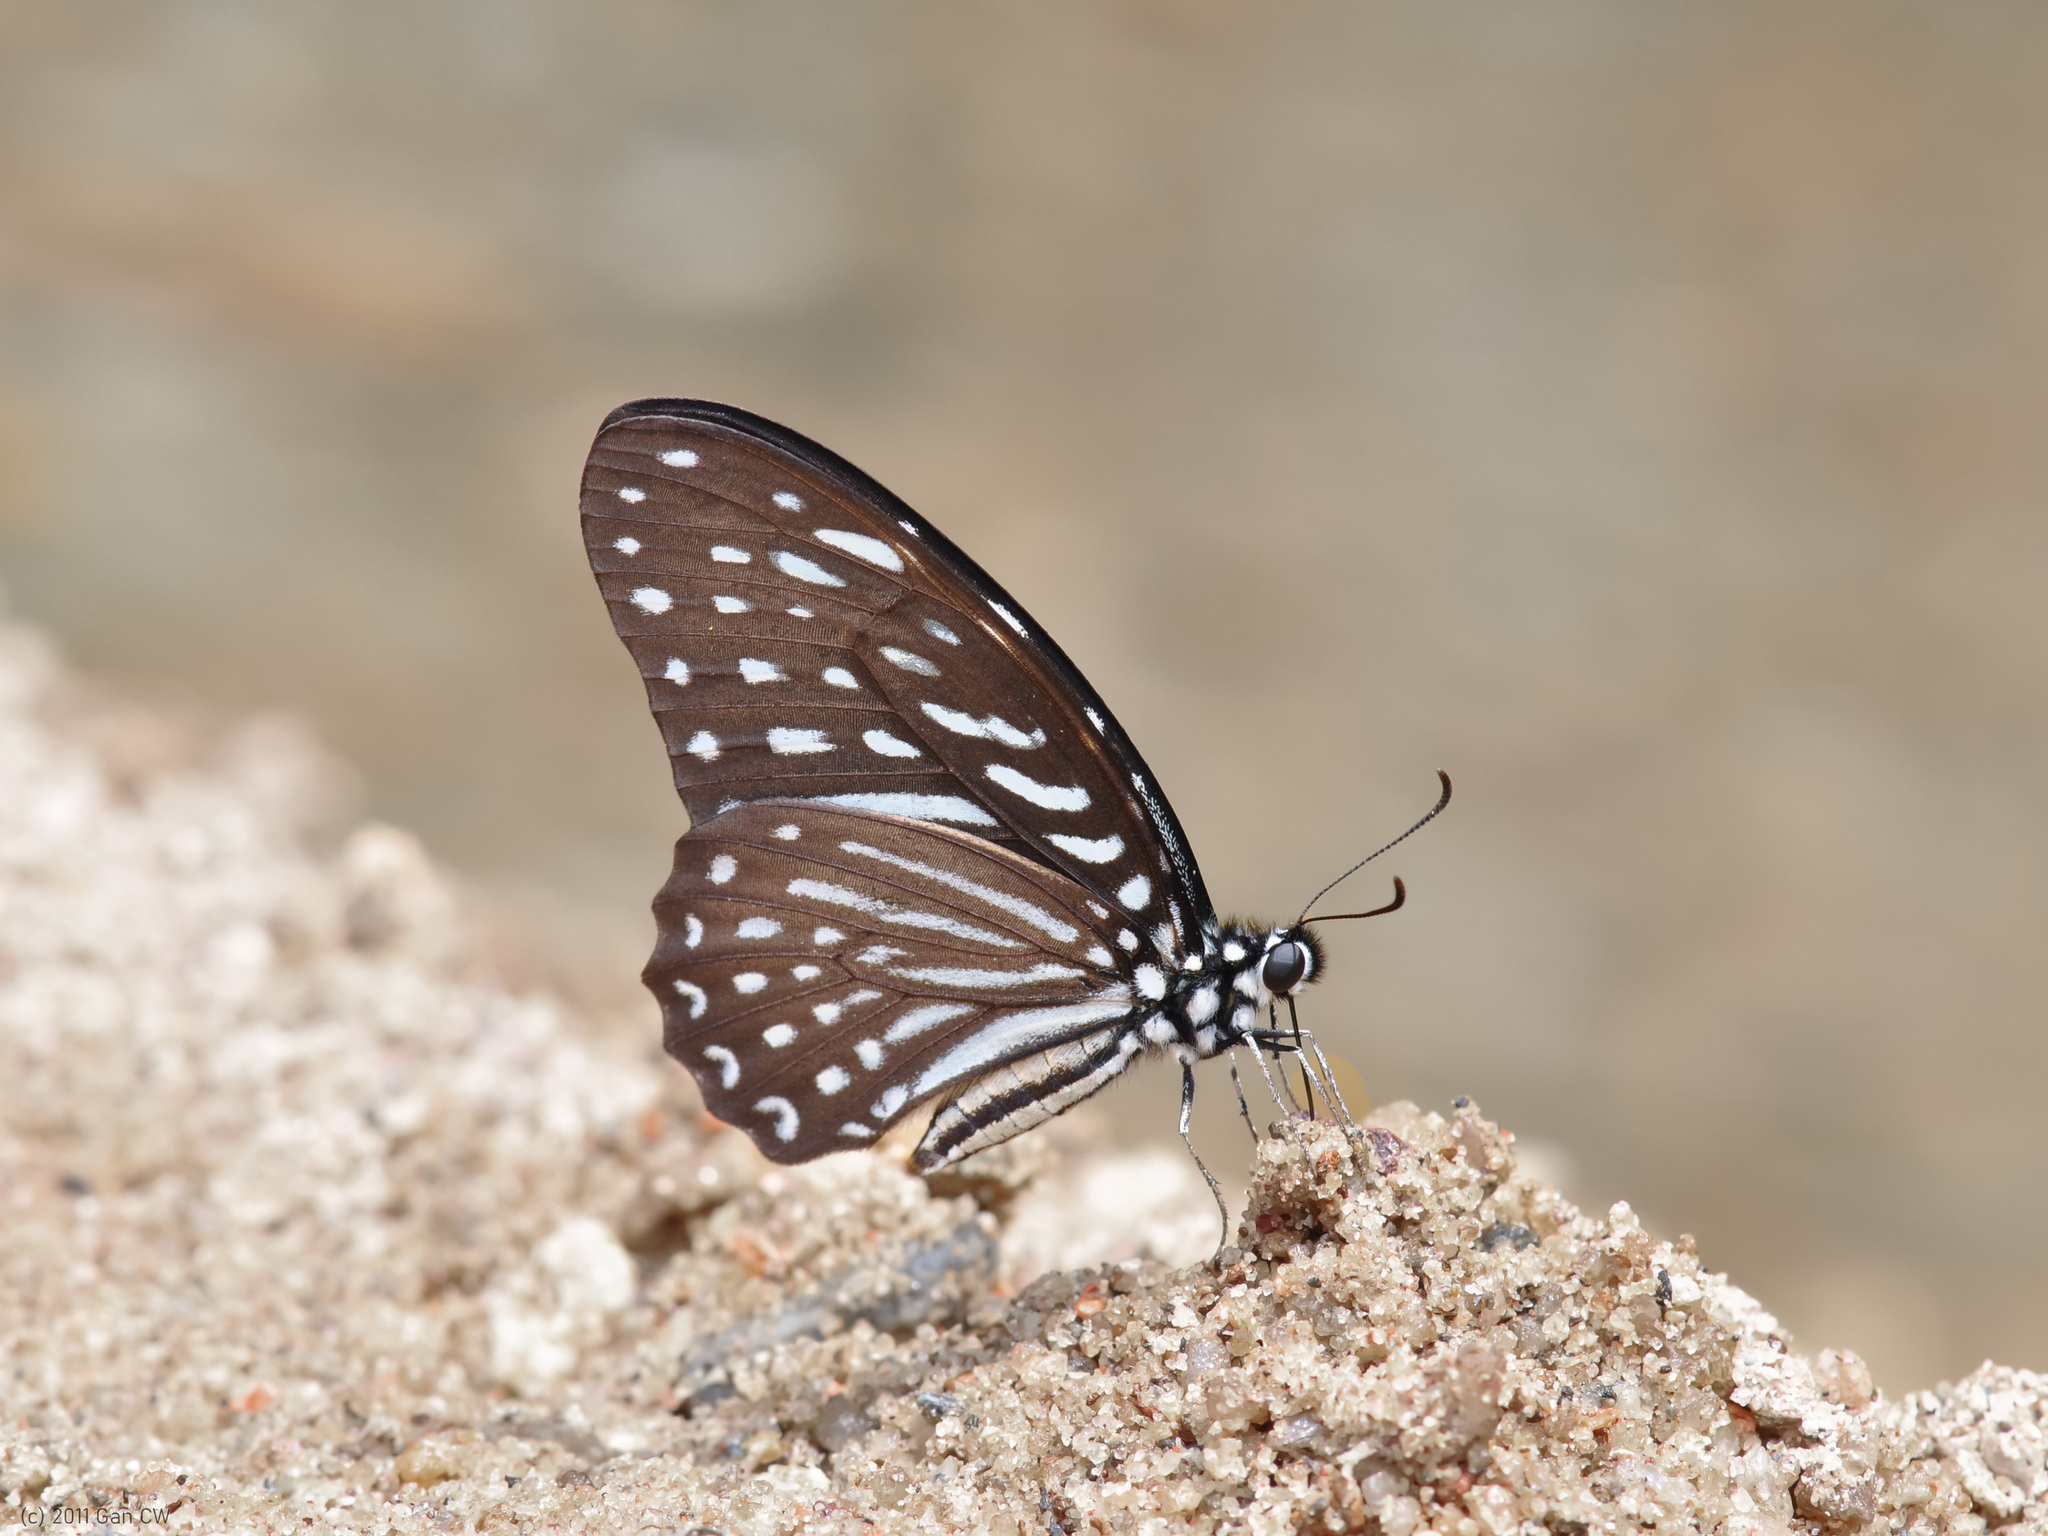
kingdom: Animalia
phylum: Arthropoda
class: Insecta
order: Lepidoptera
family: Papilionidae
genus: Graphium
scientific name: Graphium megarus
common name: Spotted zebra
